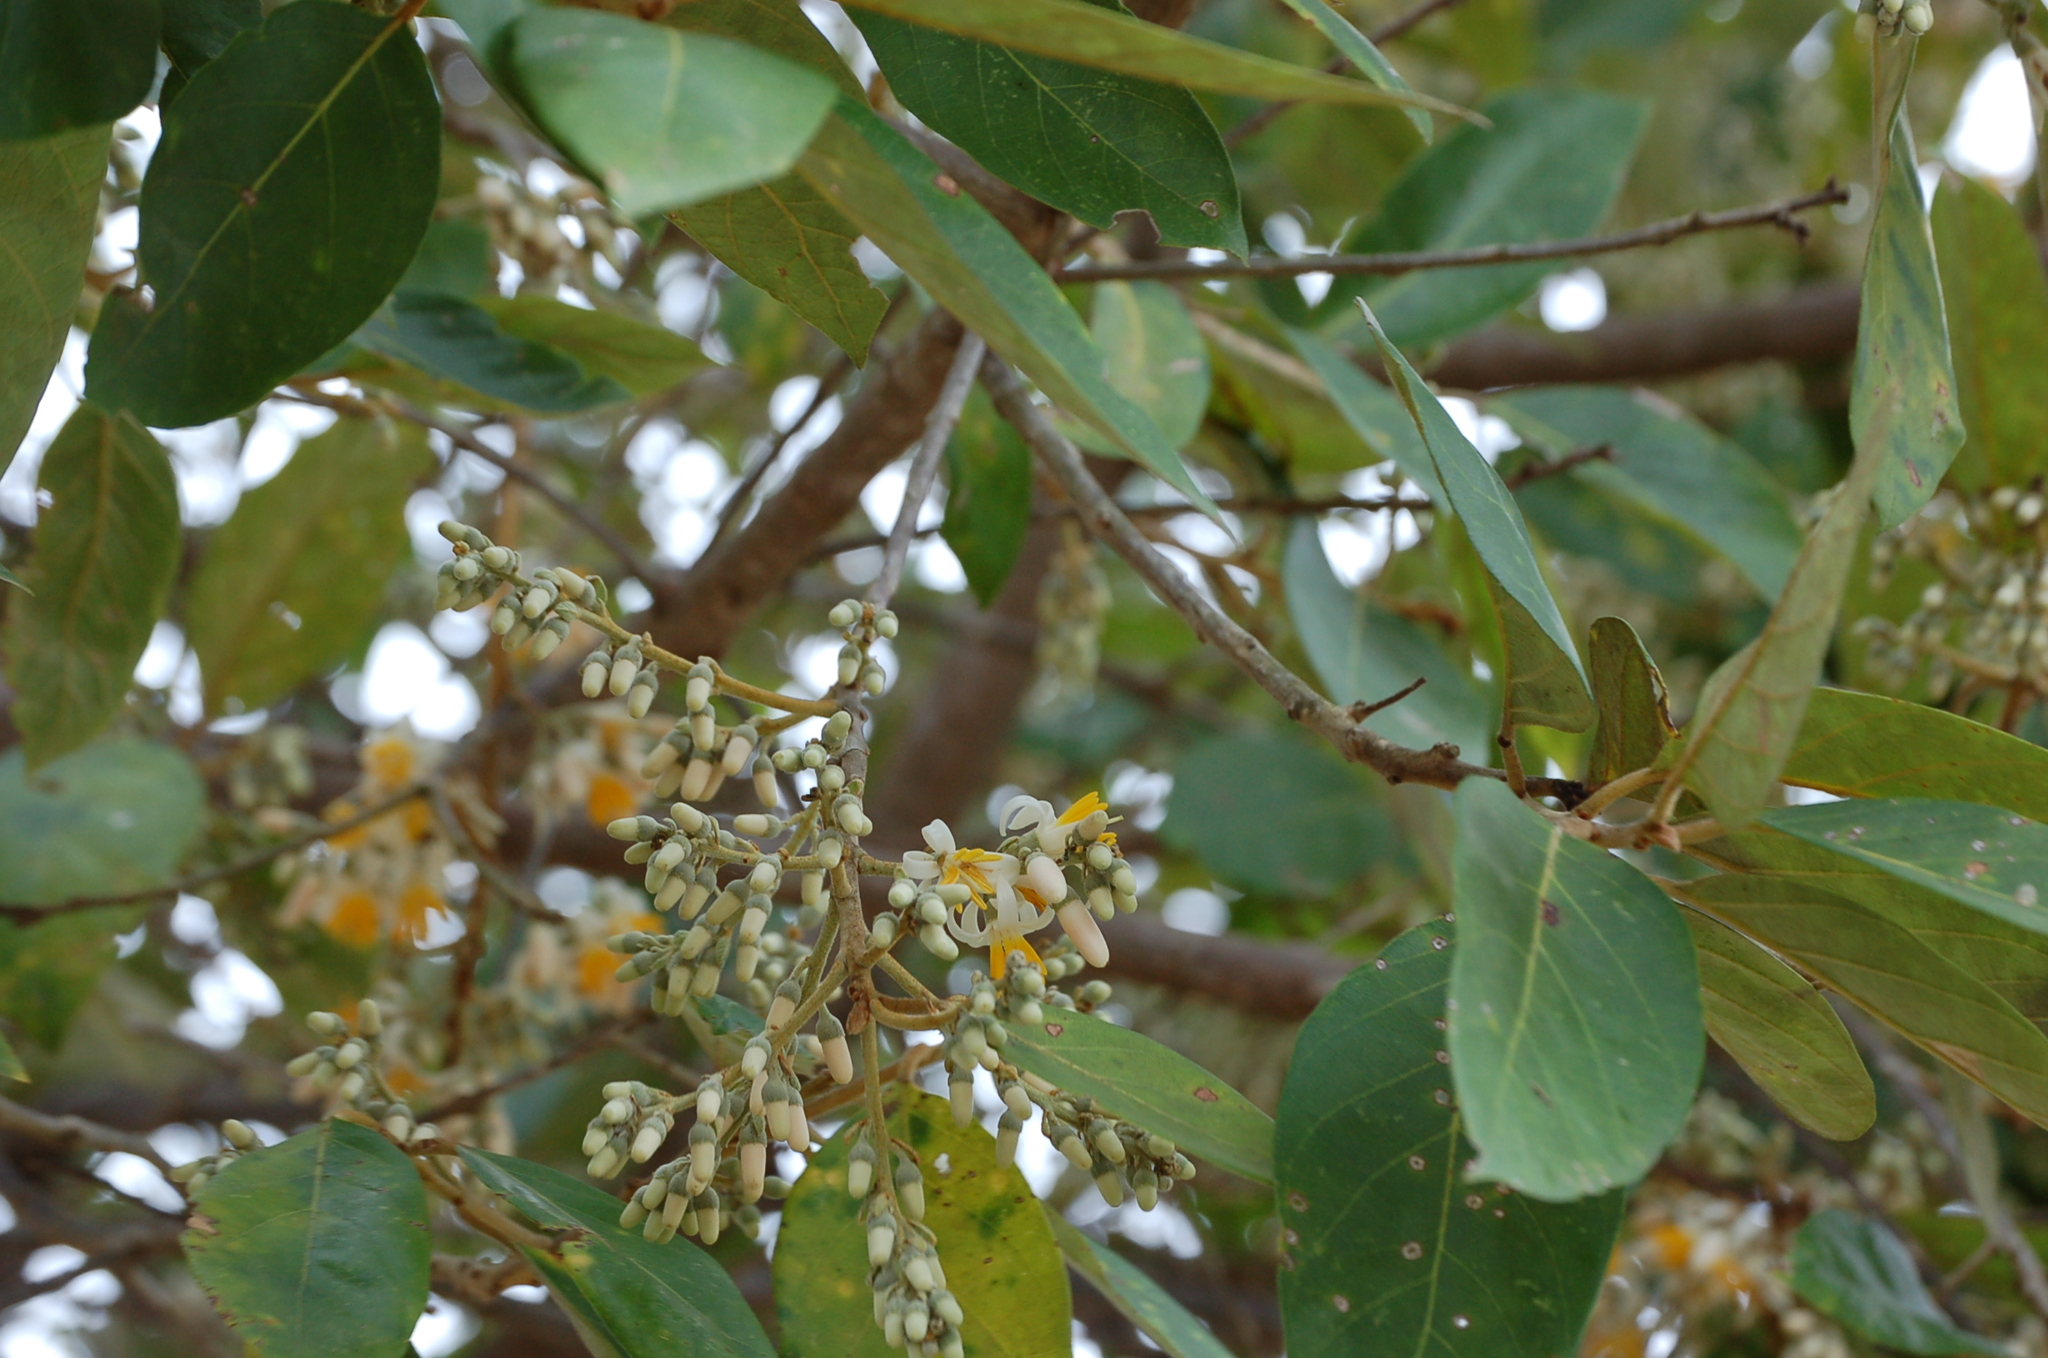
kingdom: Plantae
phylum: Tracheophyta
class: Magnoliopsida
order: Ericales
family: Styracaceae
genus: Styrax
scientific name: Styrax argenteus
